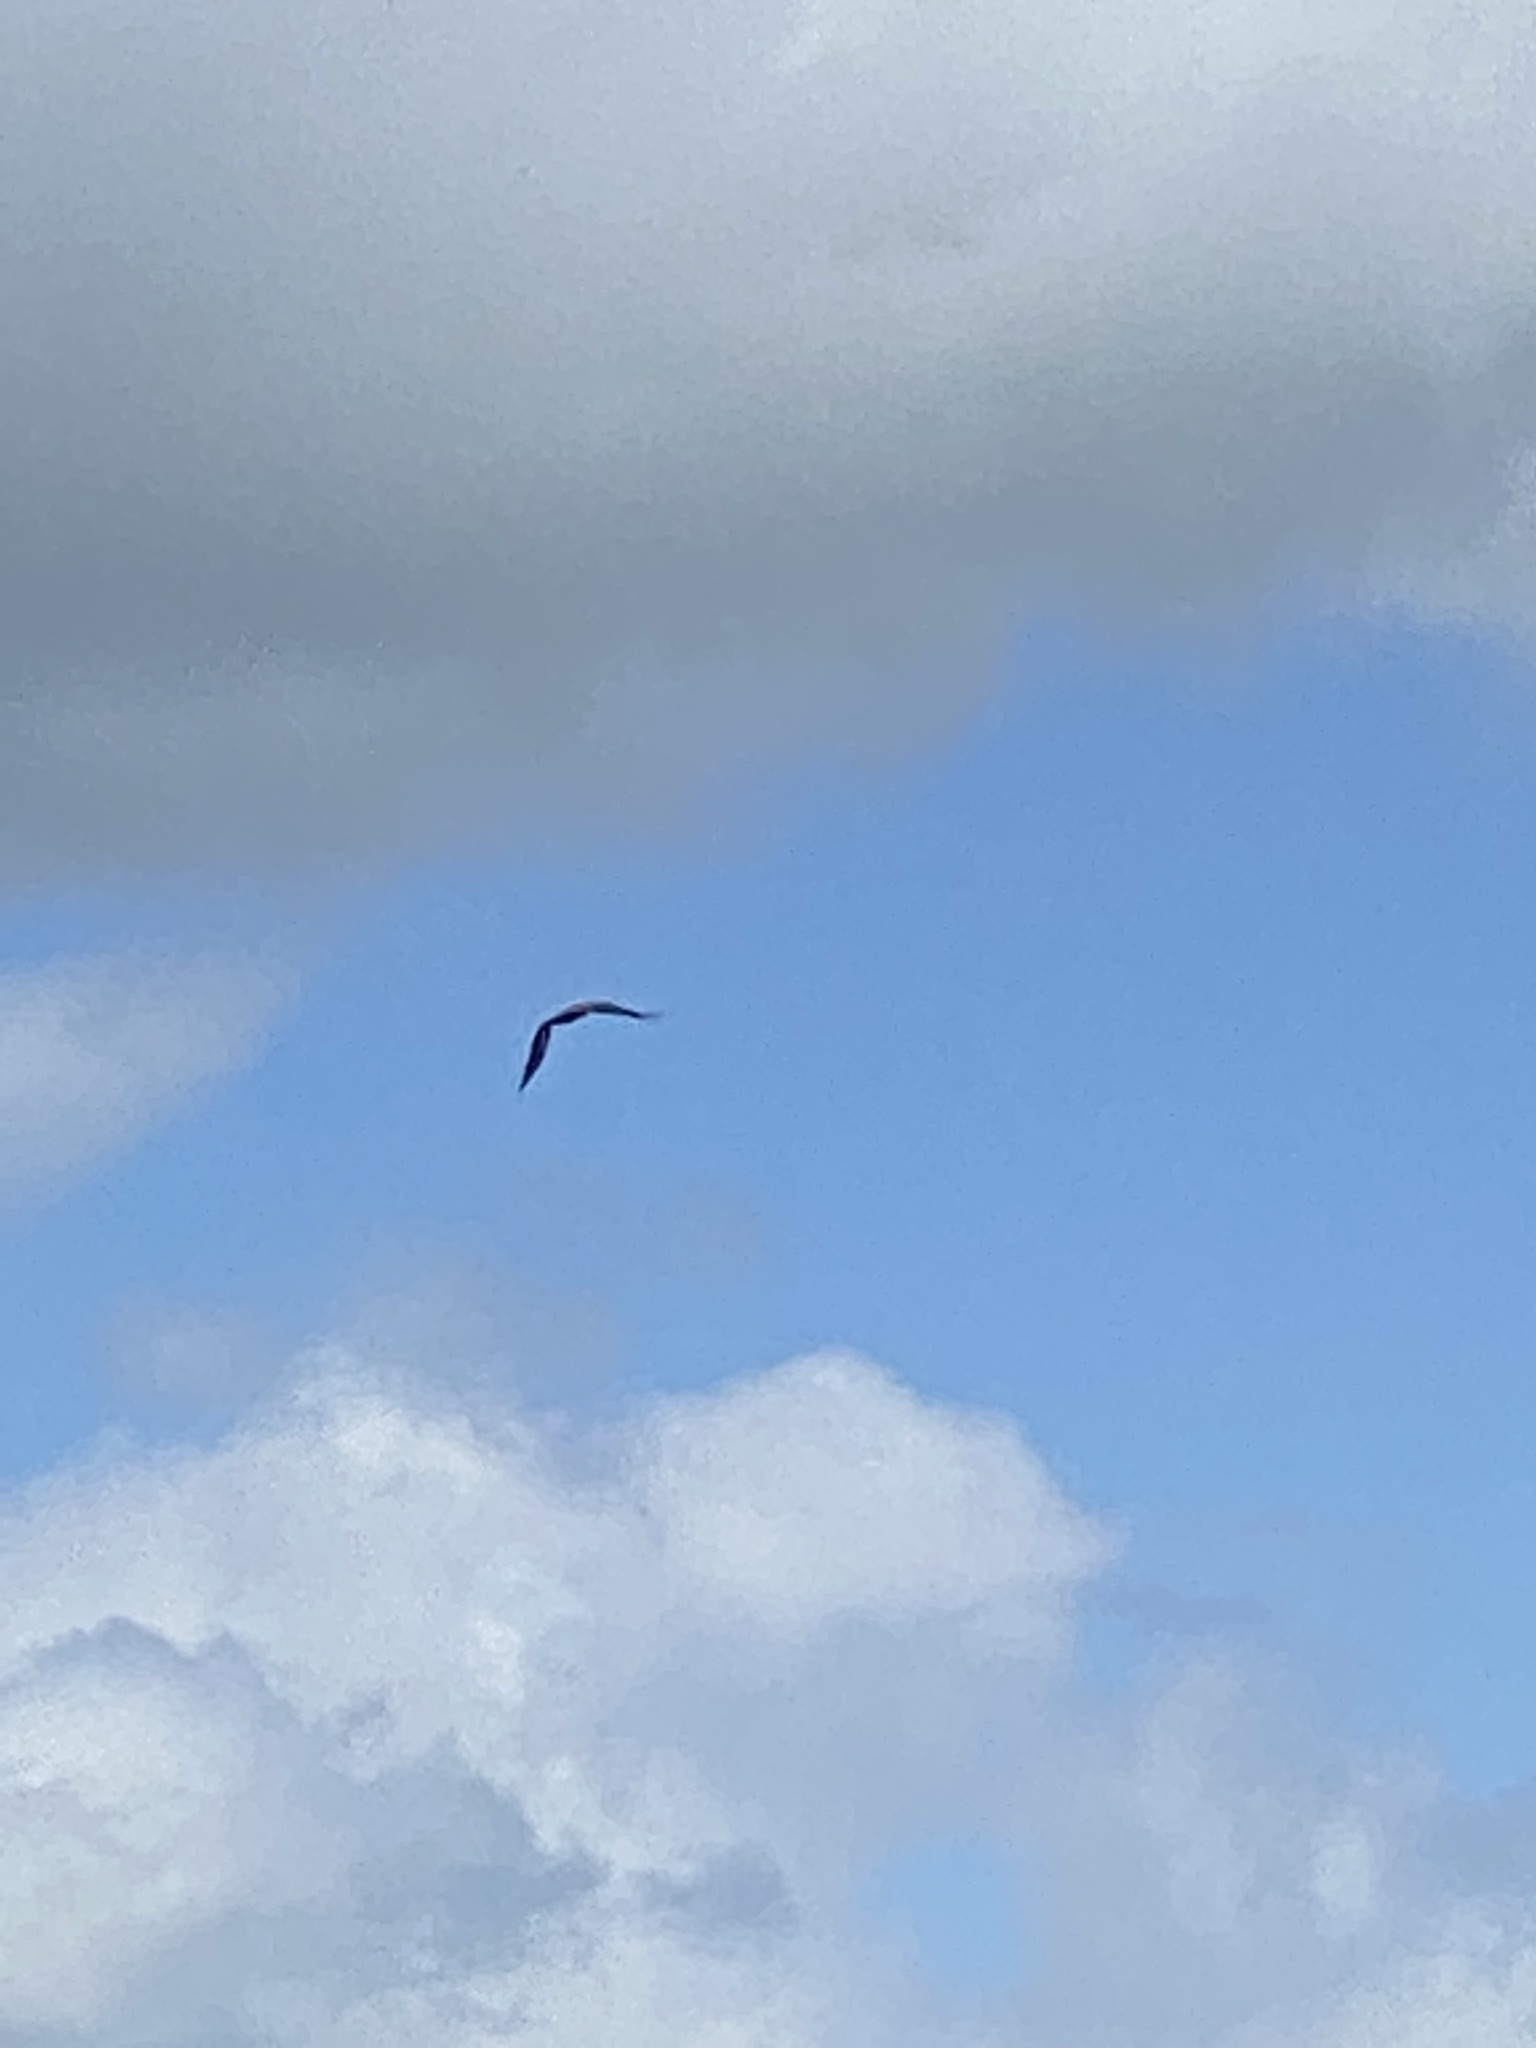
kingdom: Animalia
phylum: Chordata
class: Aves
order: Accipitriformes
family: Accipitridae
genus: Haliaeetus
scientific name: Haliaeetus leucocephalus
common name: Bald eagle
